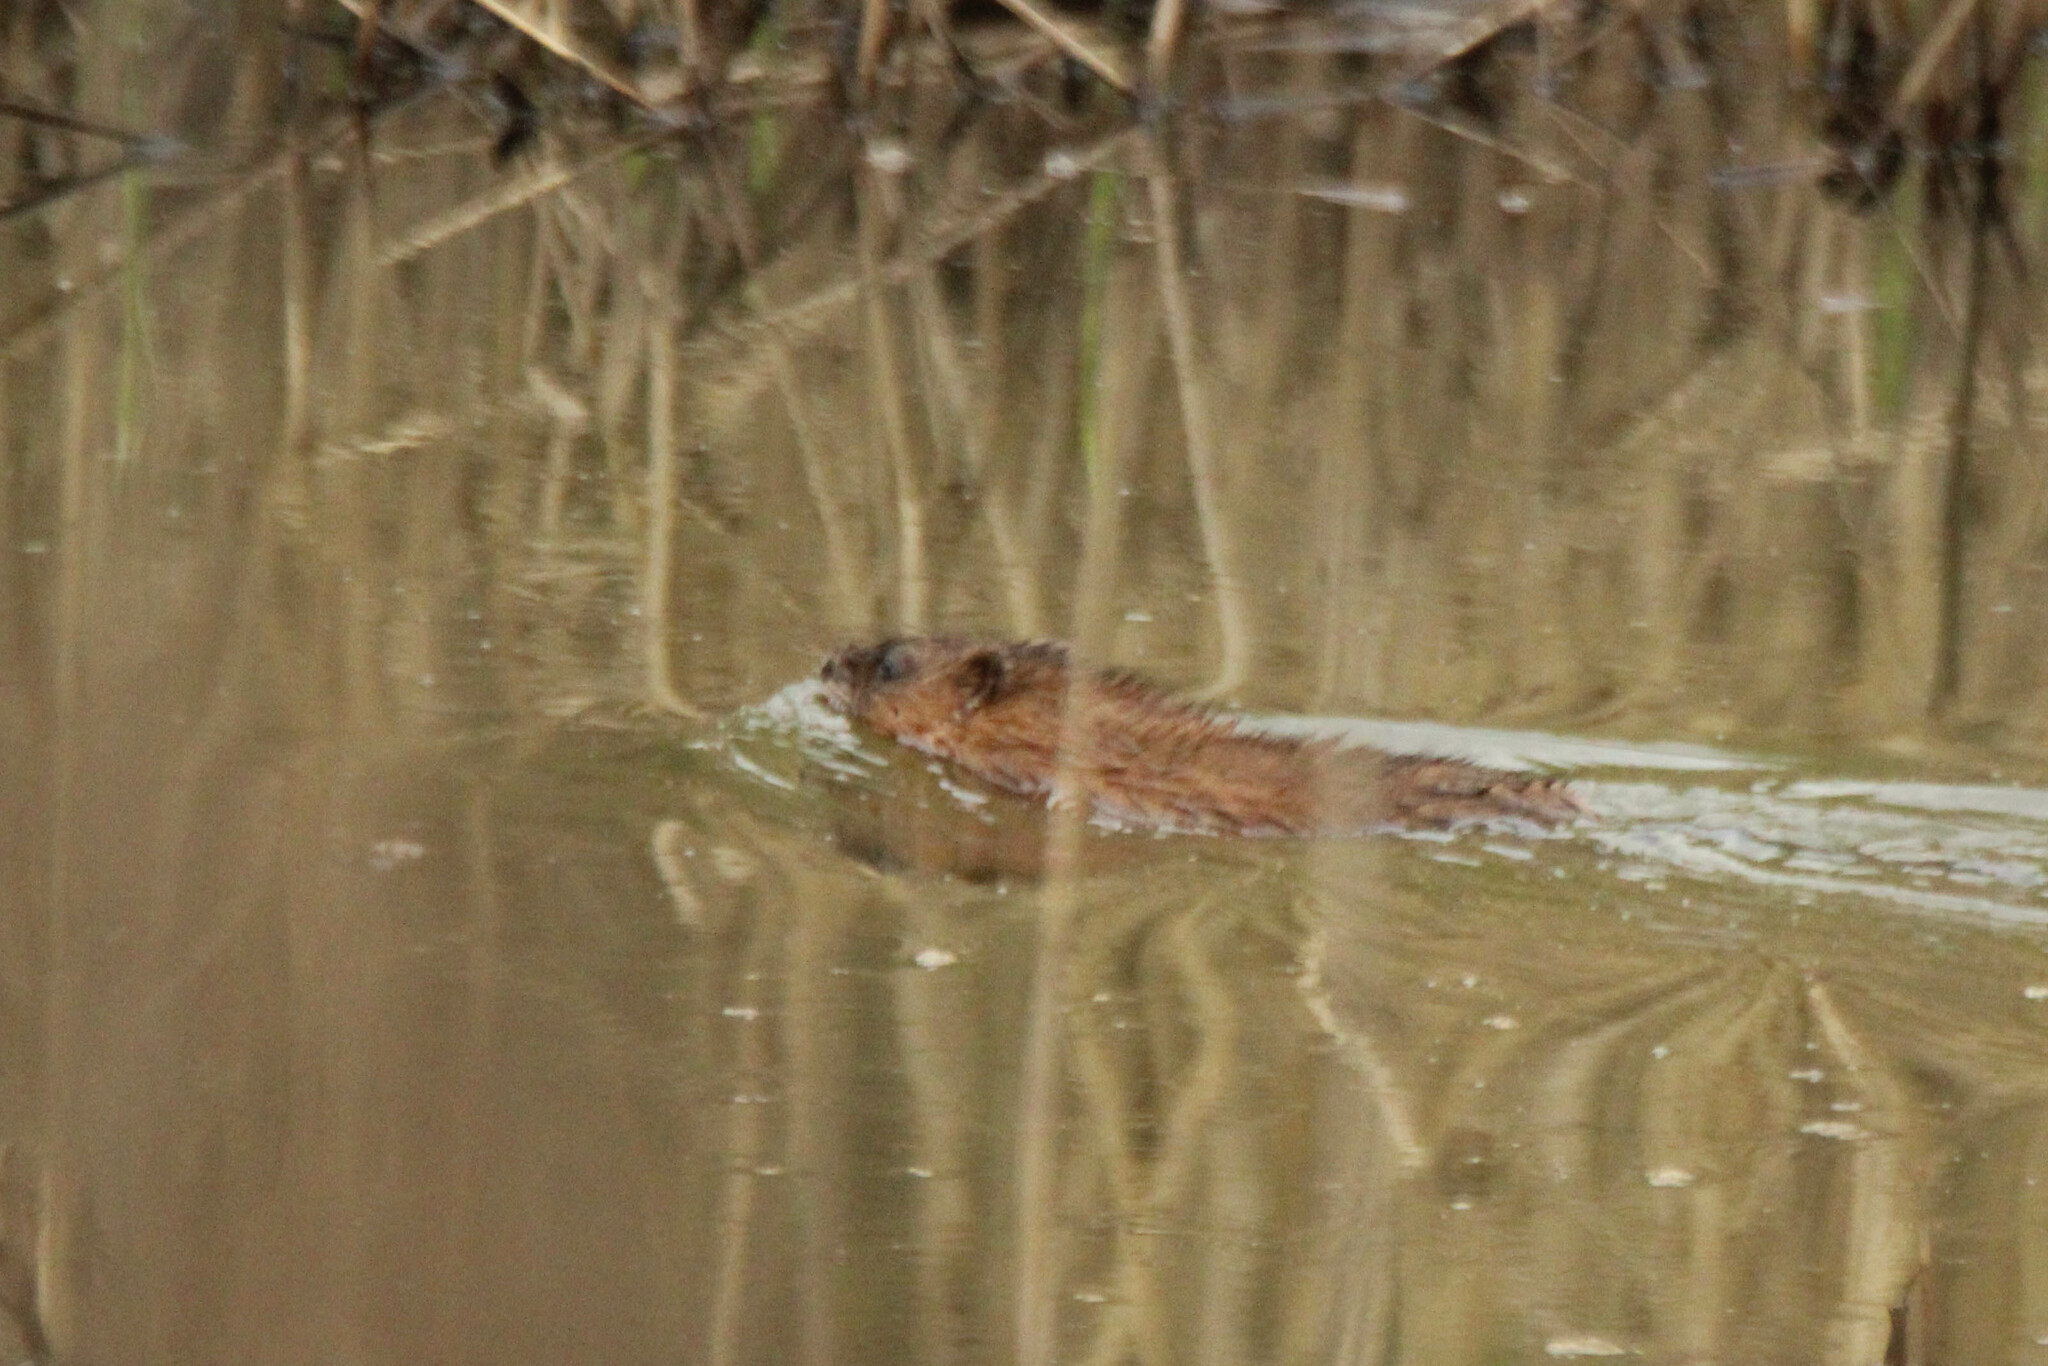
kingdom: Animalia
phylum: Chordata
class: Mammalia
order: Rodentia
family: Cricetidae
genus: Ondatra
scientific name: Ondatra zibethicus
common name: Muskrat
